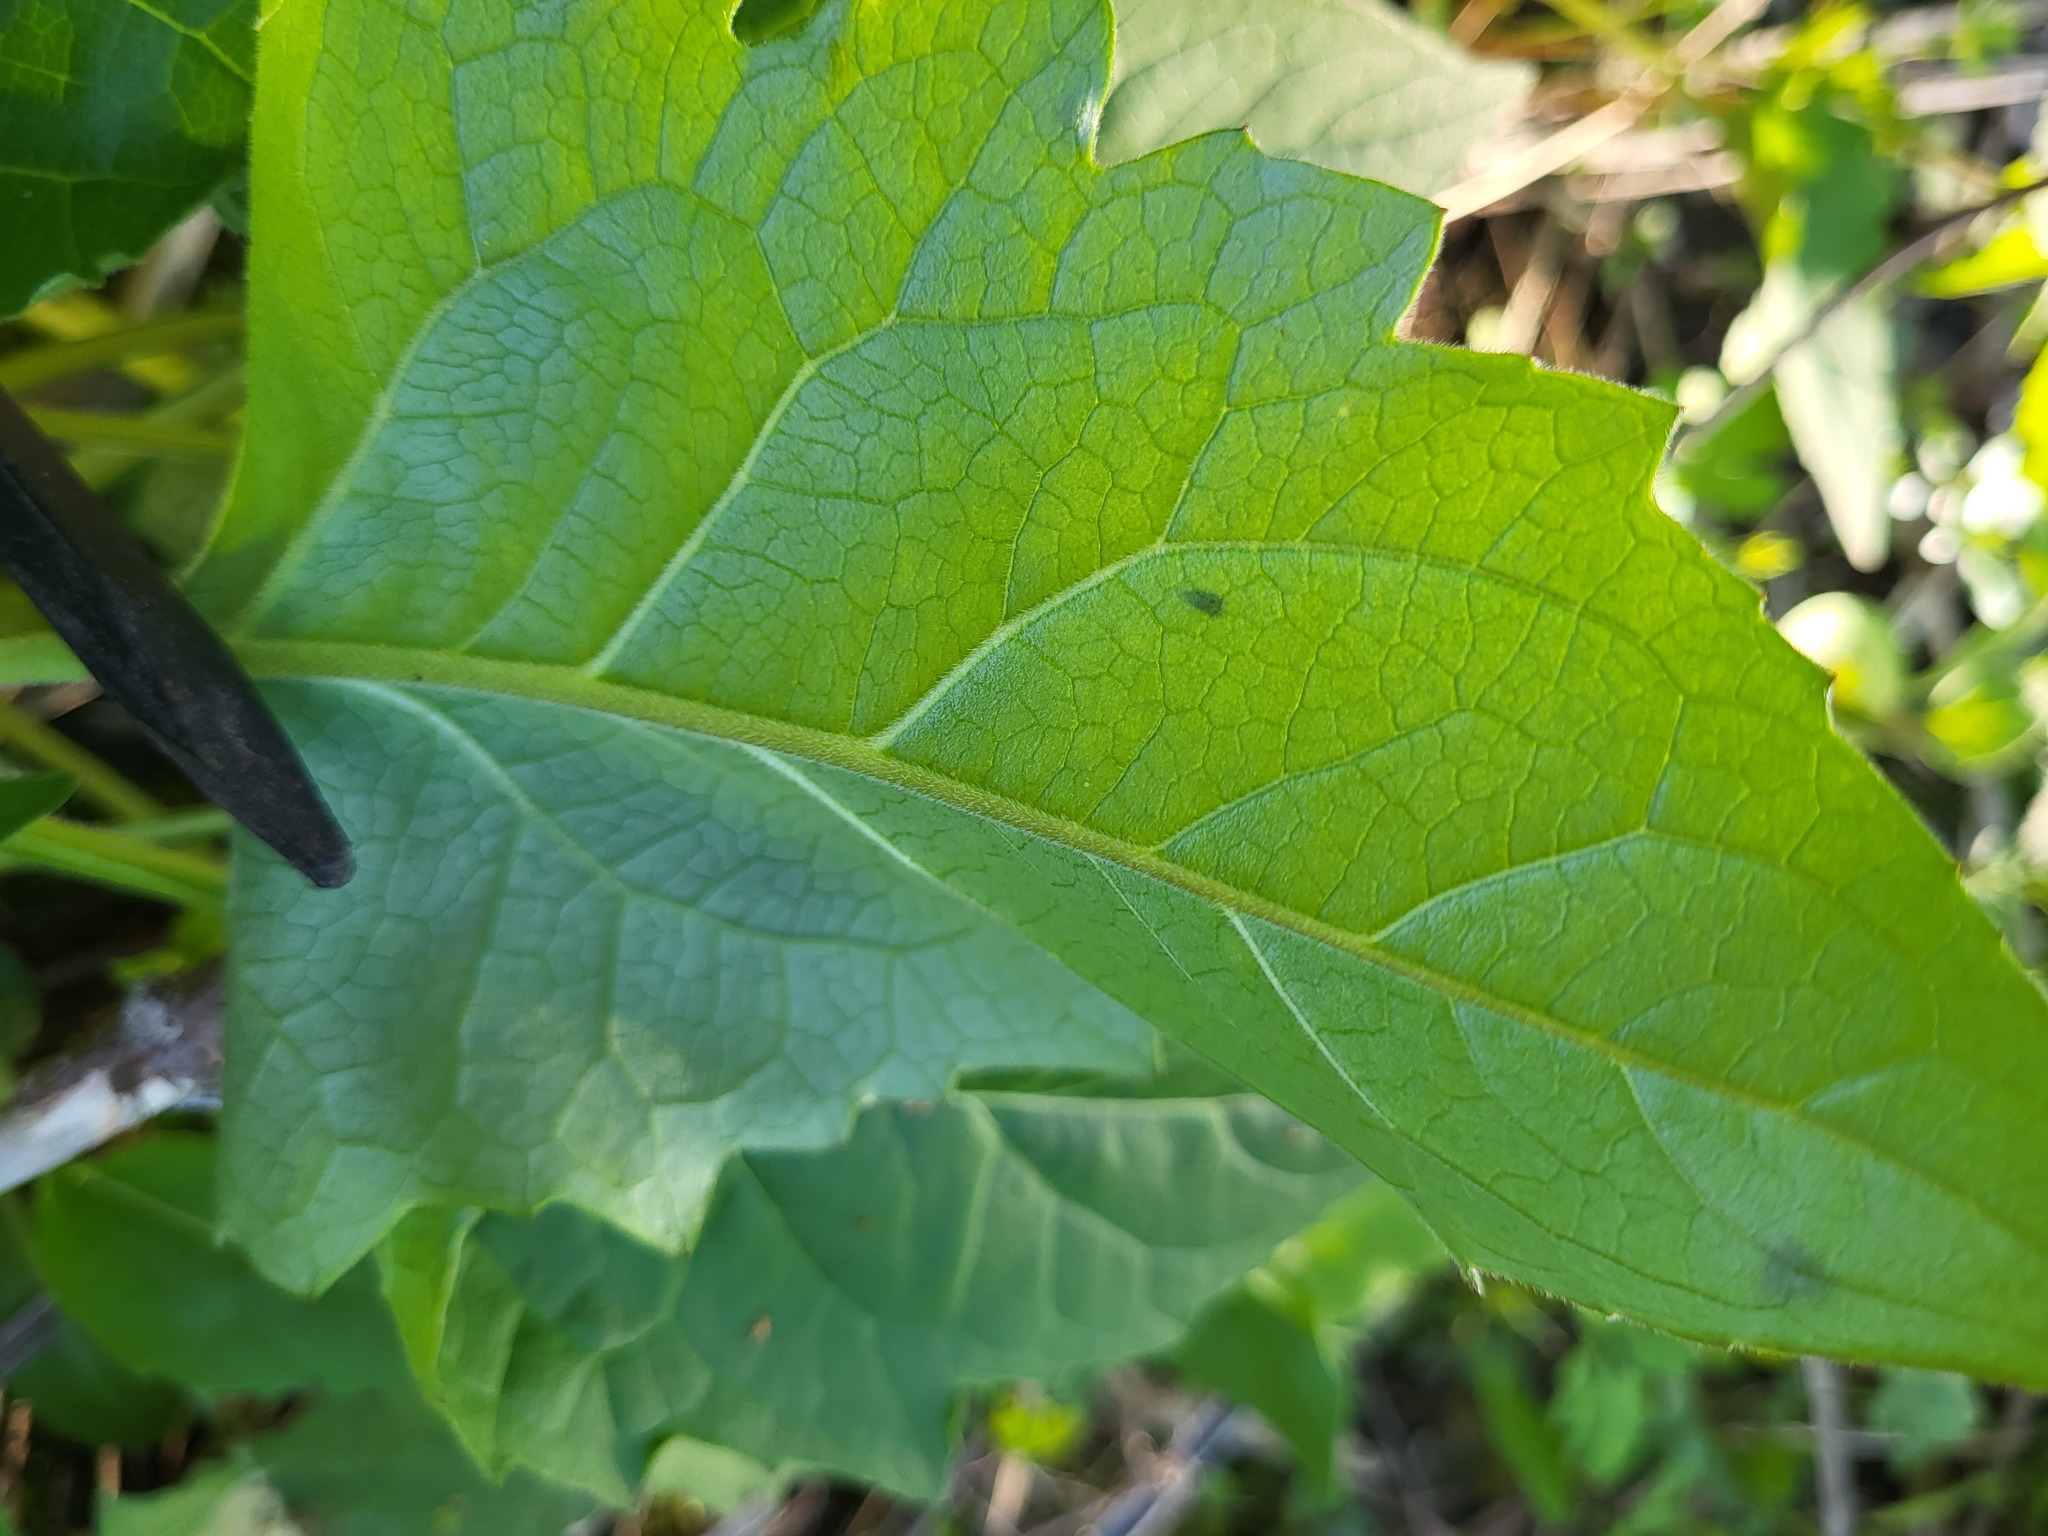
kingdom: Plantae
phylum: Tracheophyta
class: Magnoliopsida
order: Asterales
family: Asteraceae
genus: Silphium
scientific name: Silphium perfoliatum
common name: Cup-plant
